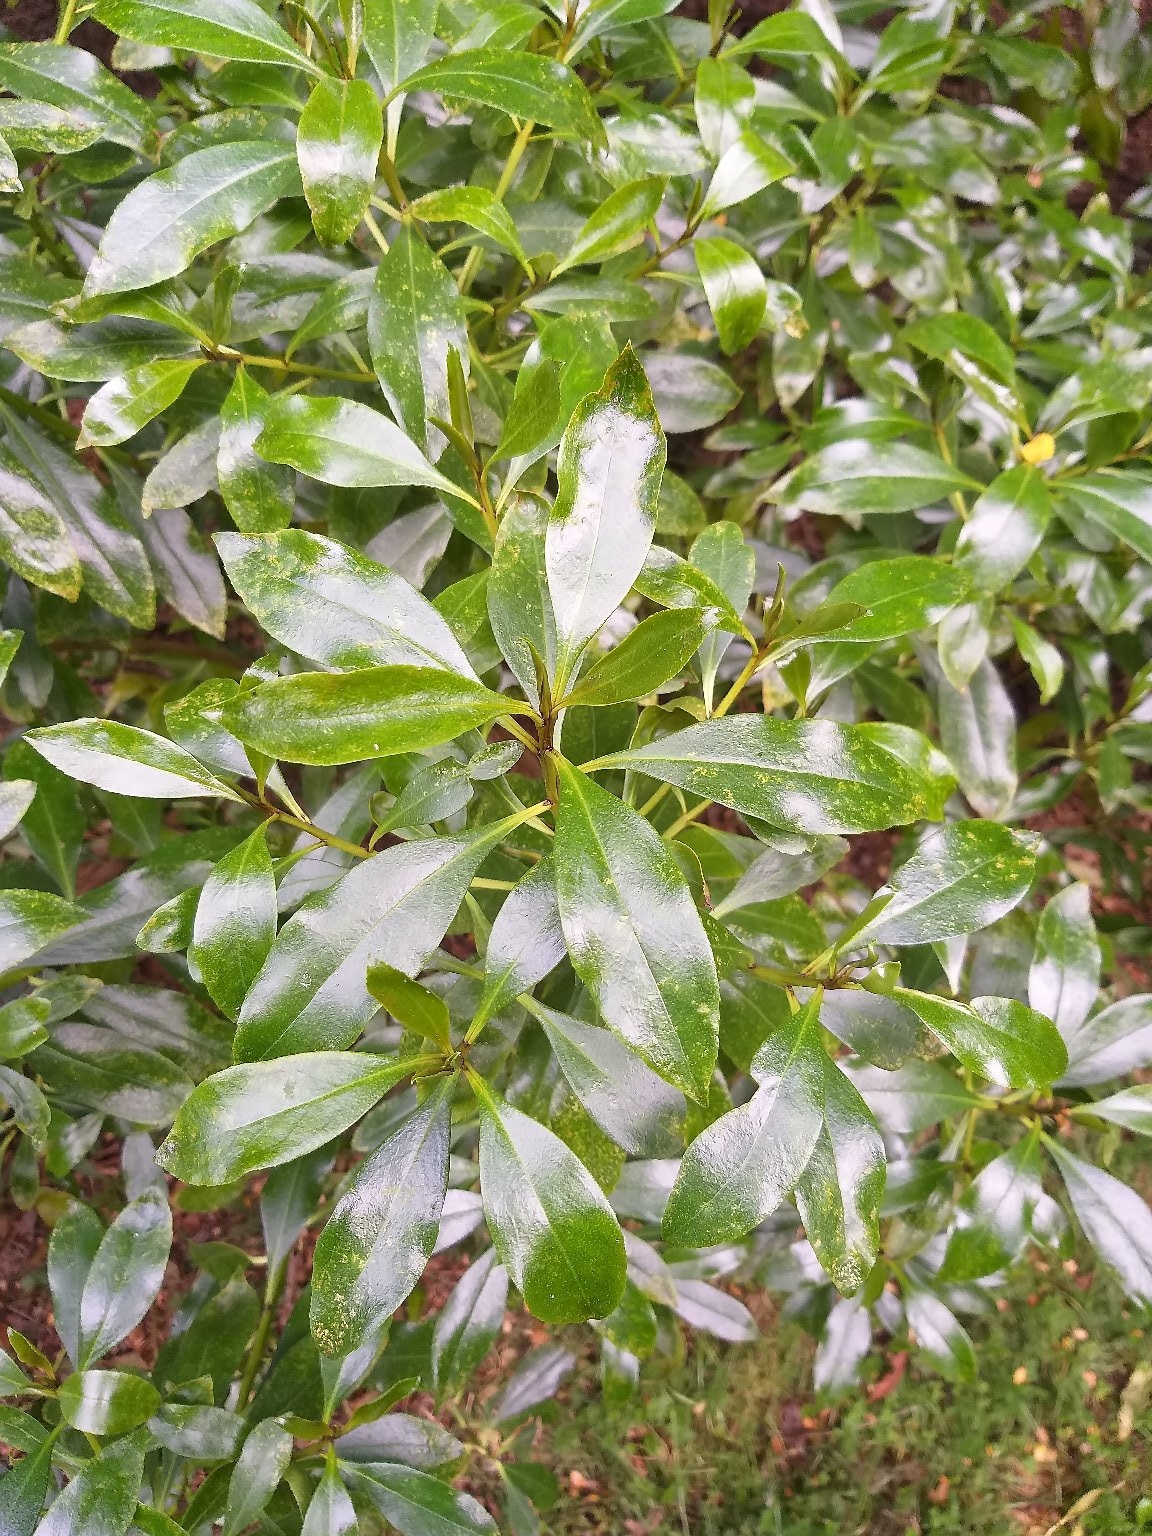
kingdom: Plantae
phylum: Tracheophyta
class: Magnoliopsida
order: Lamiales
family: Scrophulariaceae
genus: Myoporum
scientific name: Myoporum laetum
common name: Ngaio tree
